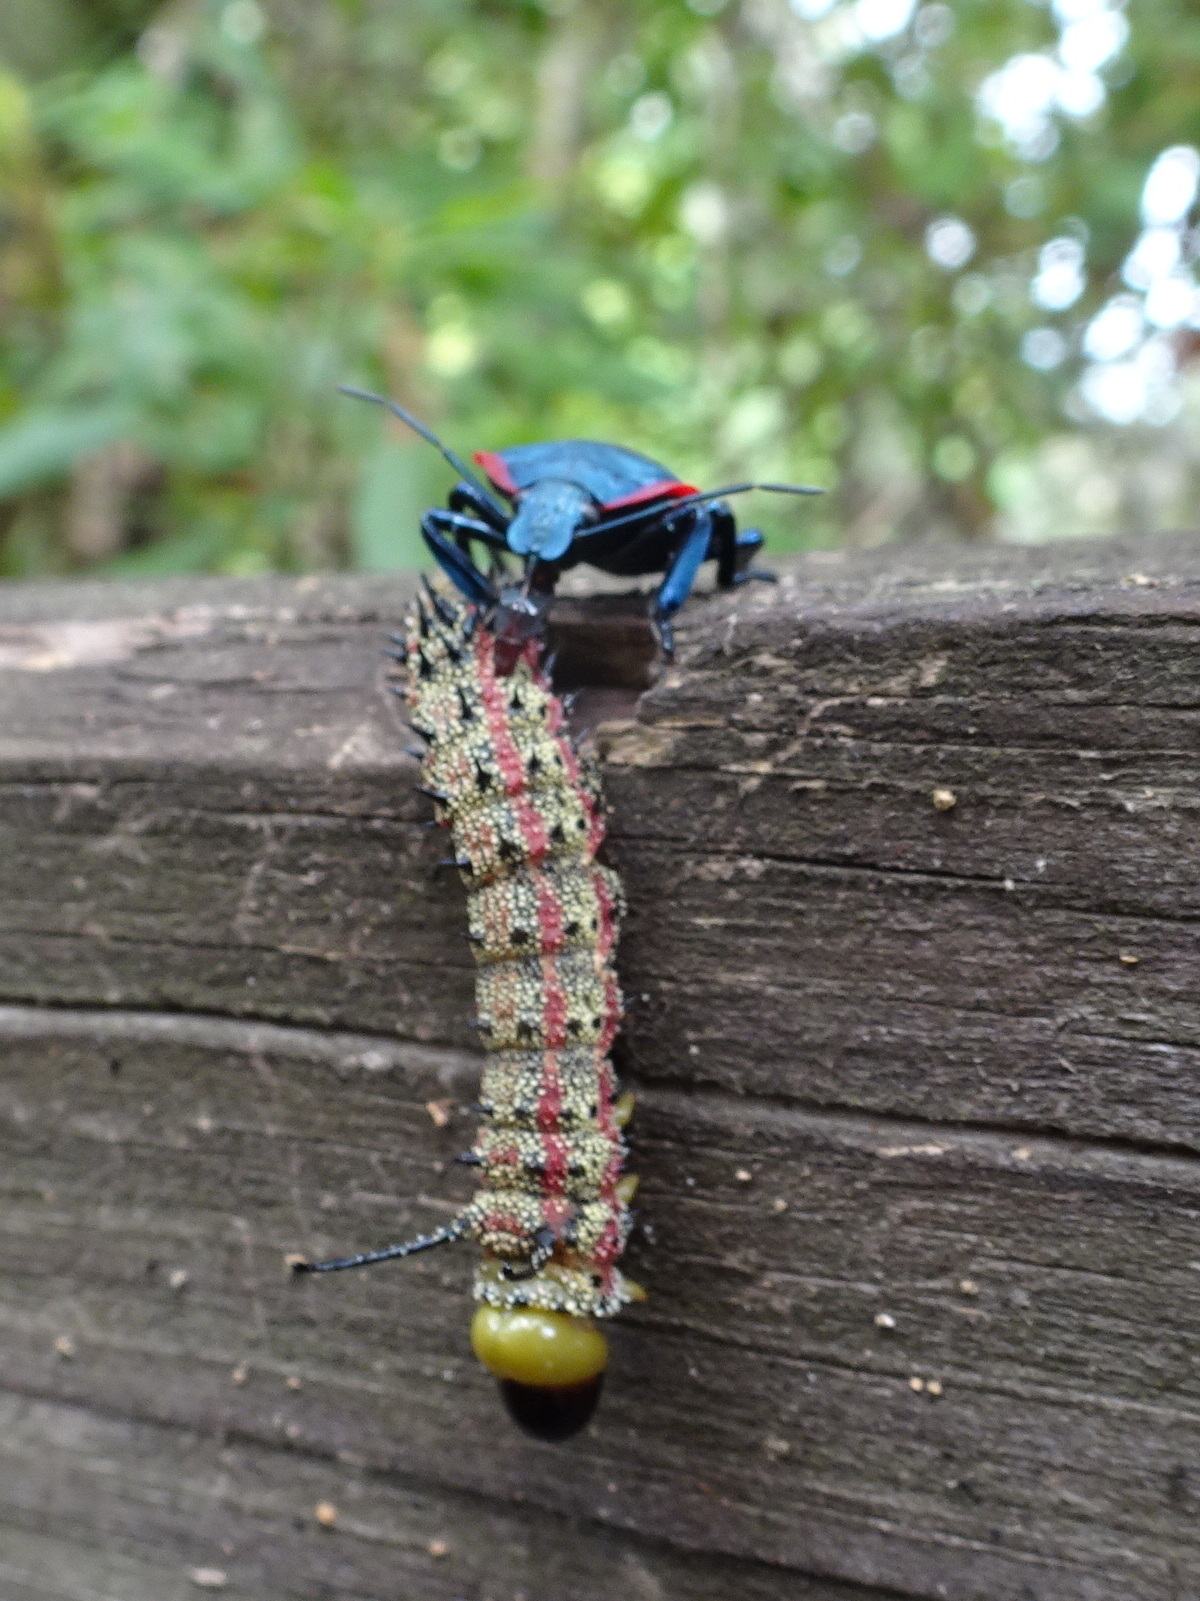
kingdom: Animalia
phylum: Arthropoda
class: Insecta
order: Lepidoptera
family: Saturniidae
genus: Anisota
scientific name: Anisota virginiensis
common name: Pink striped oakworm moth
